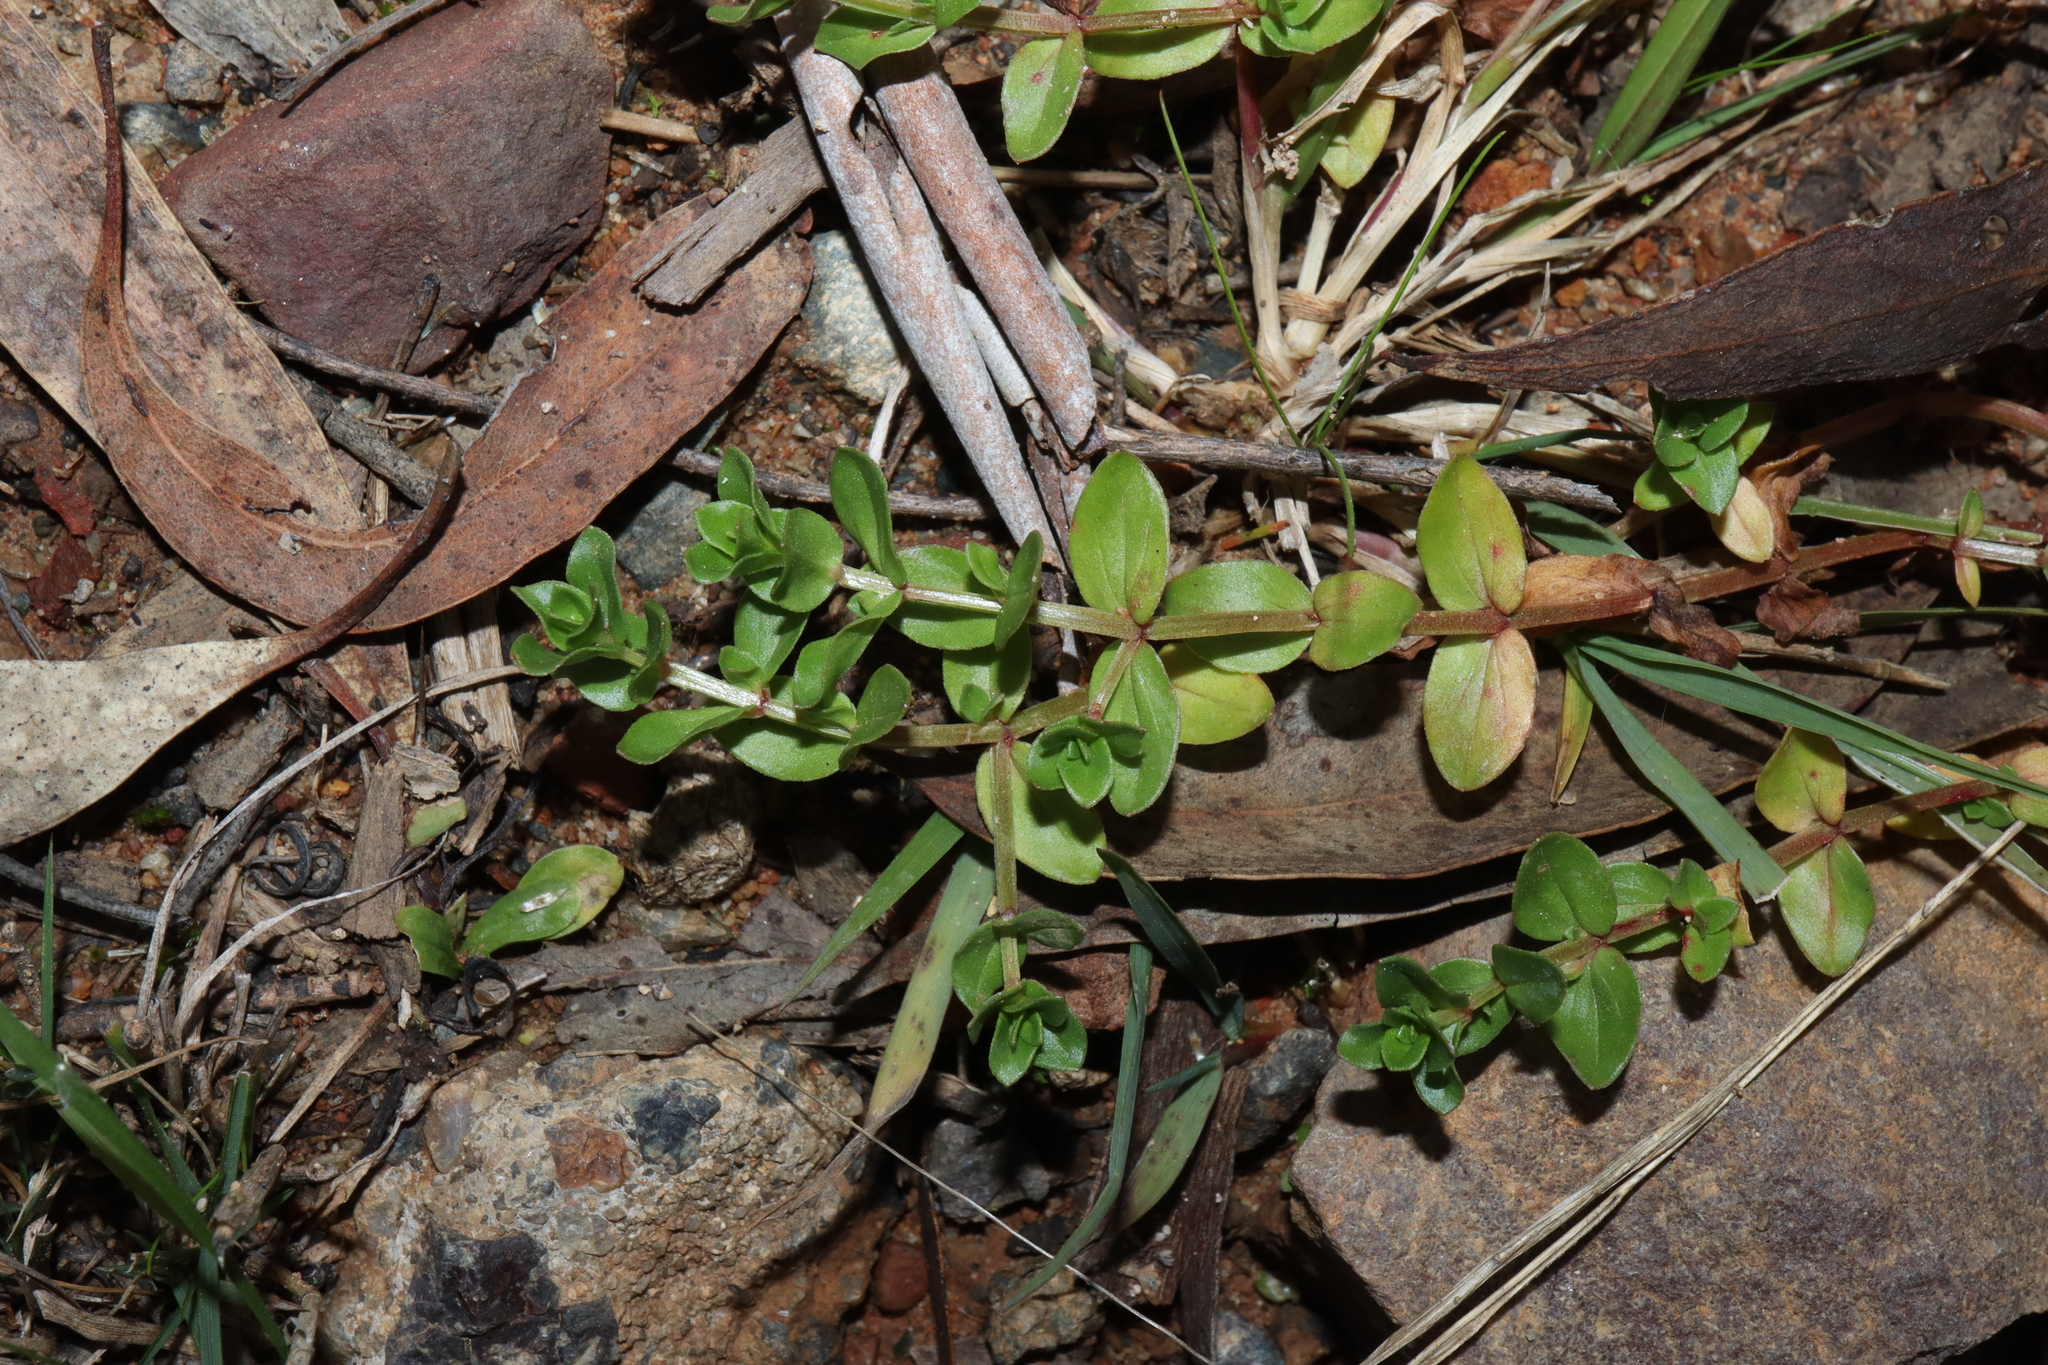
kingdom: Plantae
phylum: Tracheophyta
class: Magnoliopsida
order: Ericales
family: Primulaceae
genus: Lysimachia
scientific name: Lysimachia arvensis
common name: Scarlet pimpernel
